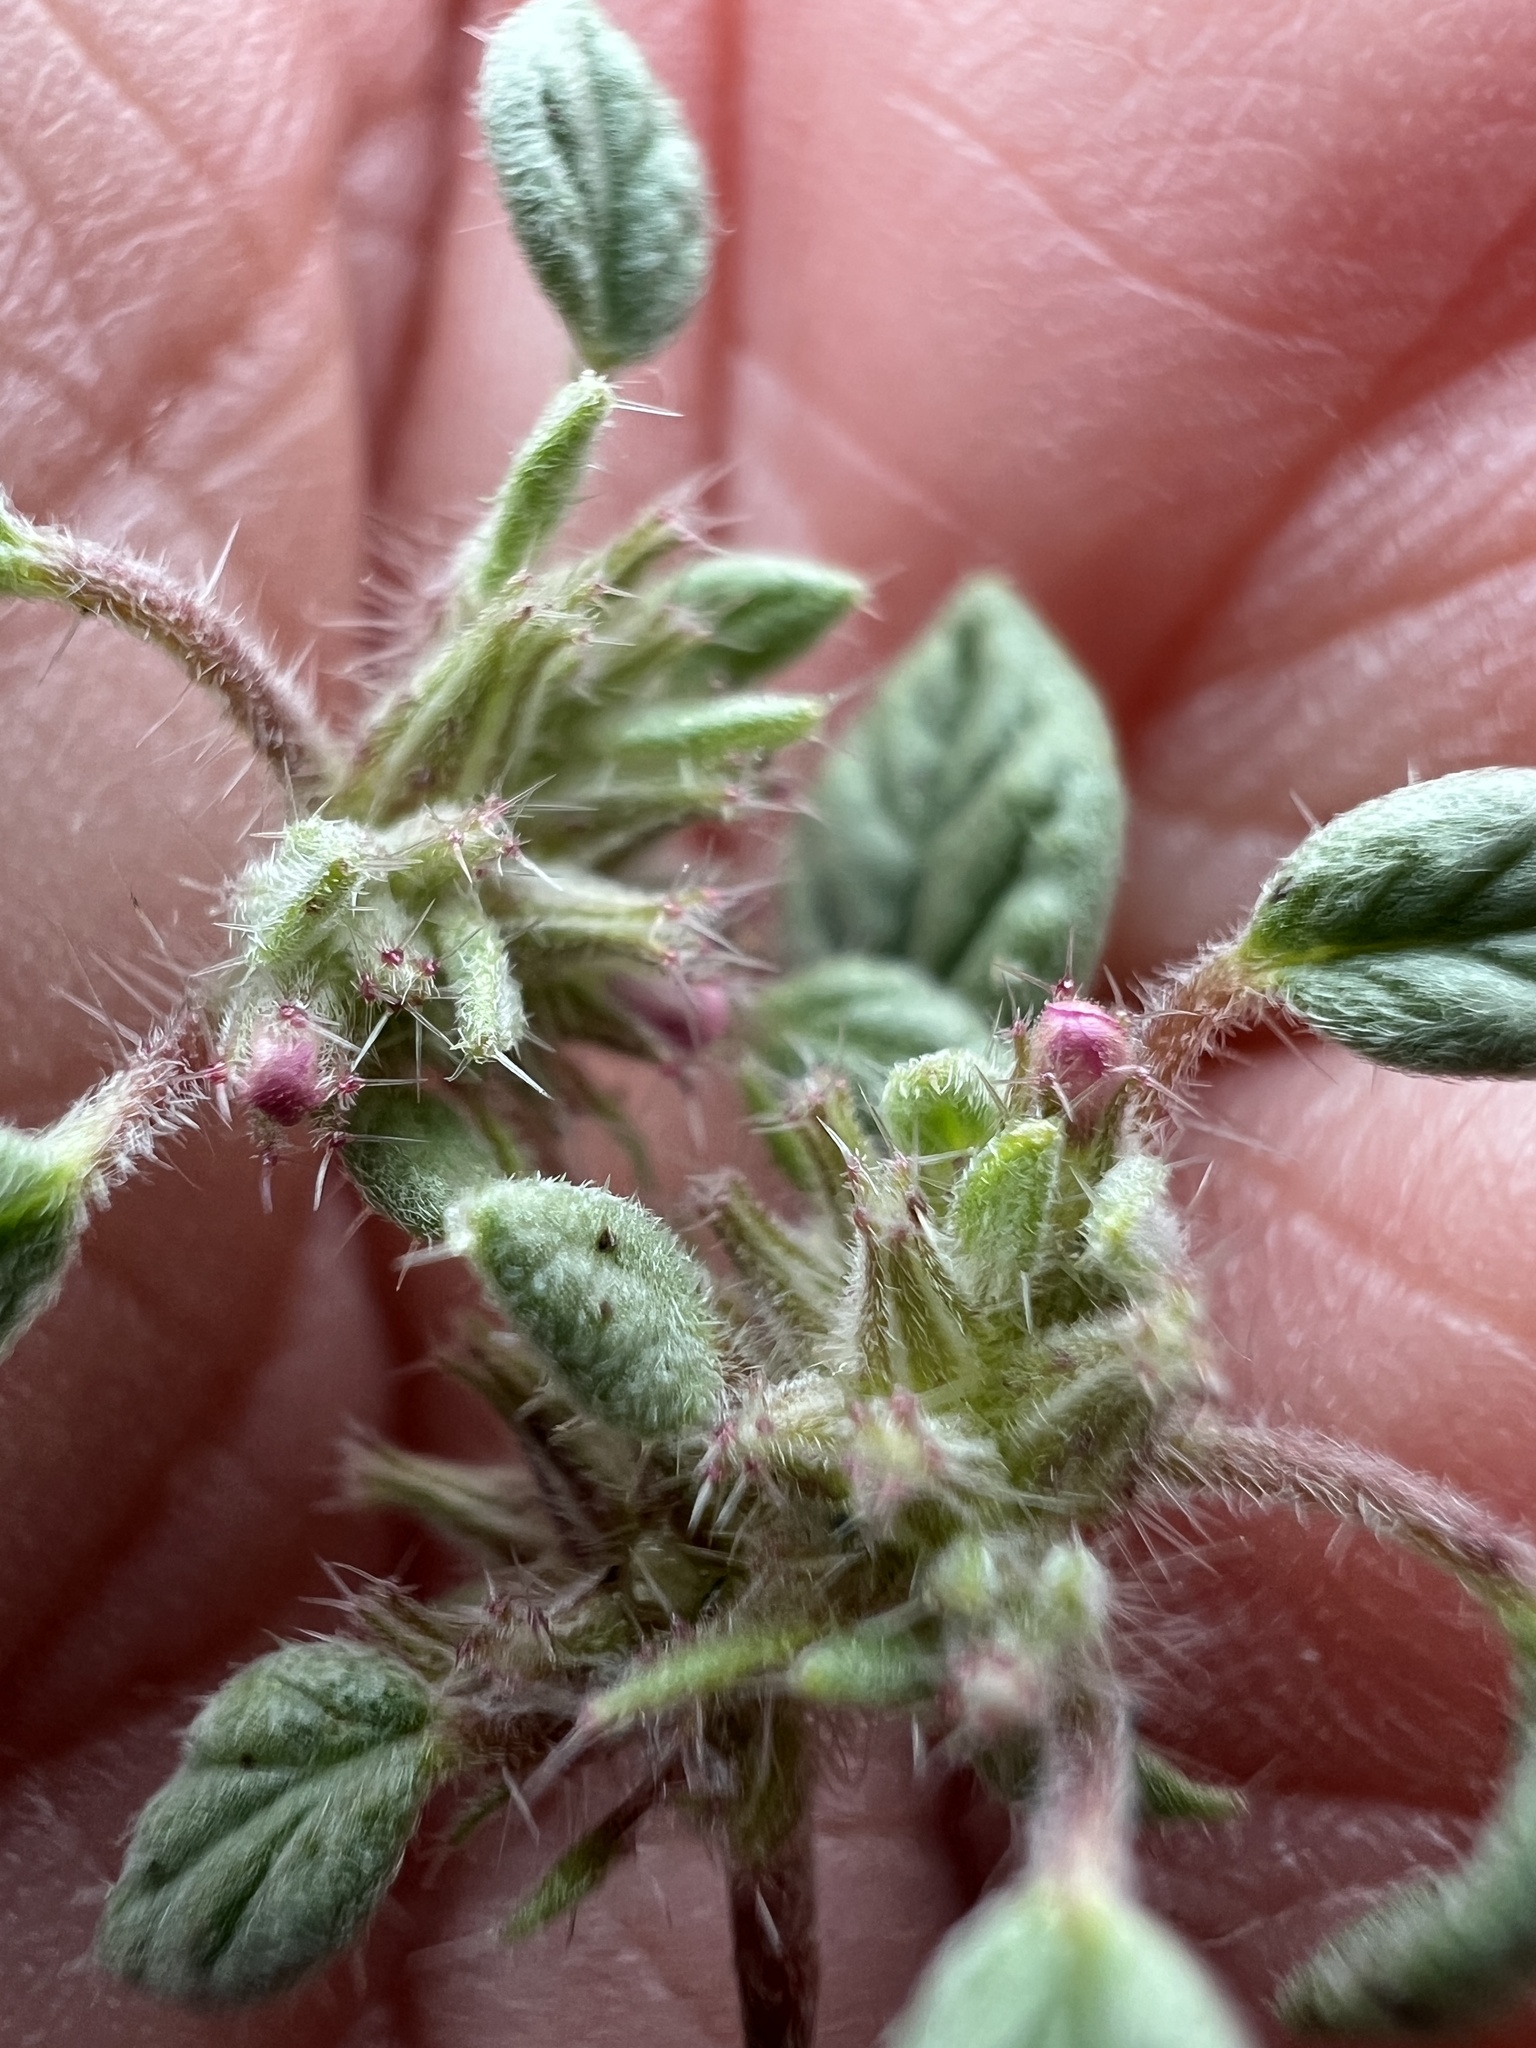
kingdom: Plantae
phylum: Tracheophyta
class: Magnoliopsida
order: Boraginales
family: Ehretiaceae
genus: Tiquilia
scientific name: Tiquilia nuttallii
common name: Rosette tiquilia
